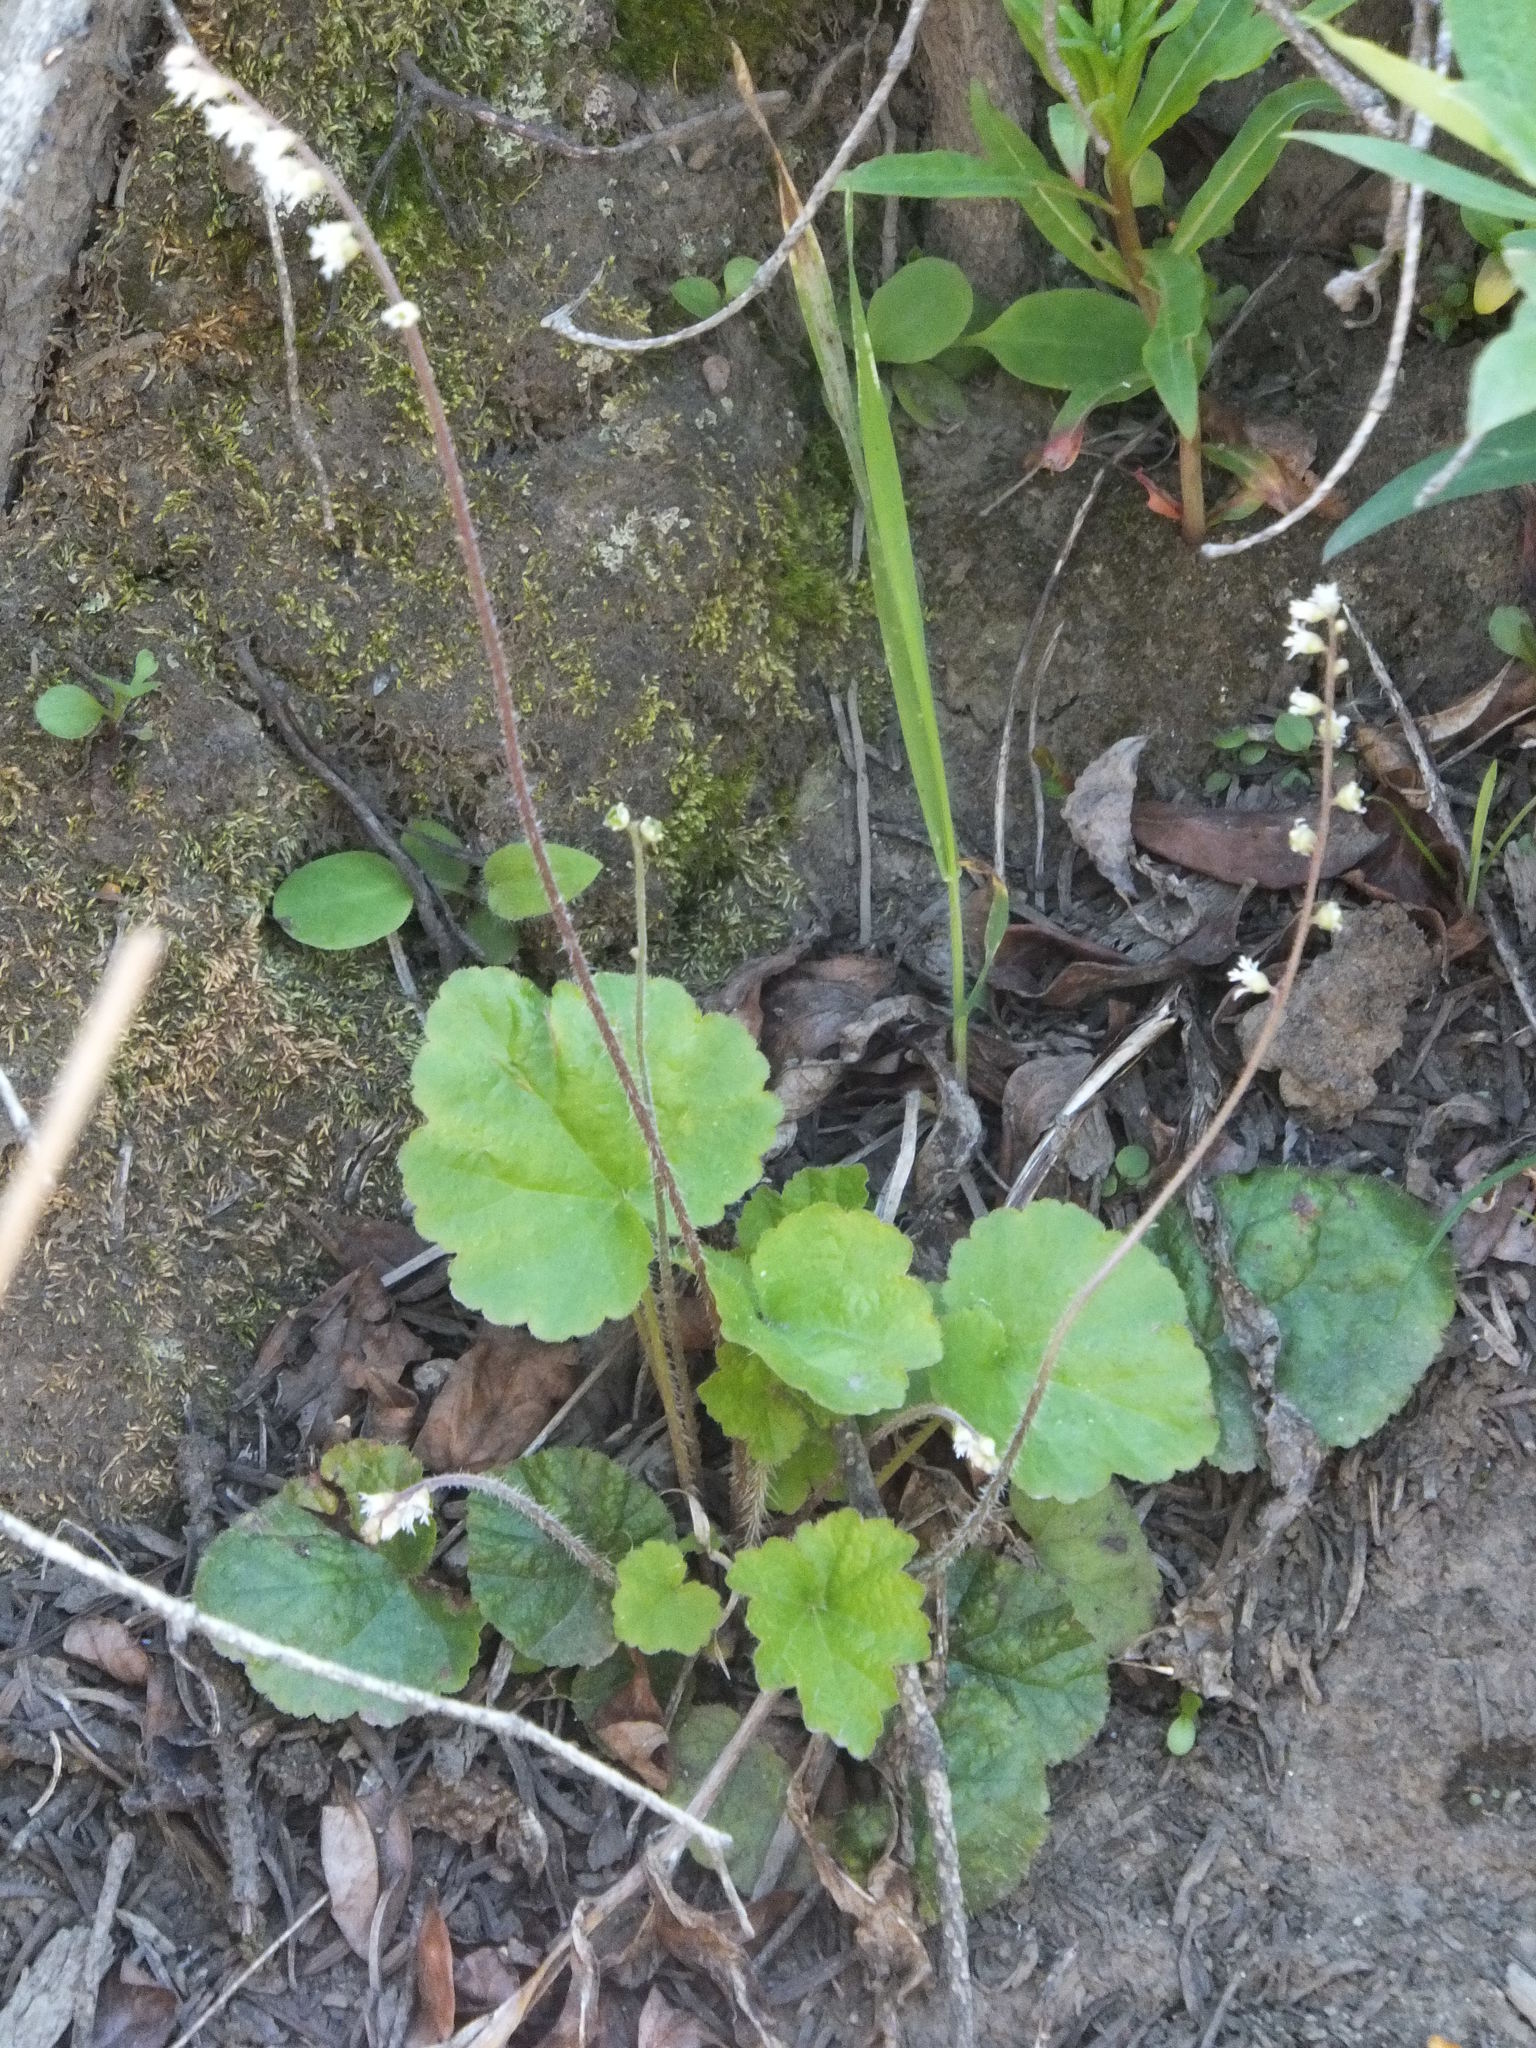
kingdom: Plantae
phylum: Tracheophyta
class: Magnoliopsida
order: Saxifragales
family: Saxifragaceae
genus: Ozomelis
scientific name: Ozomelis trifida
